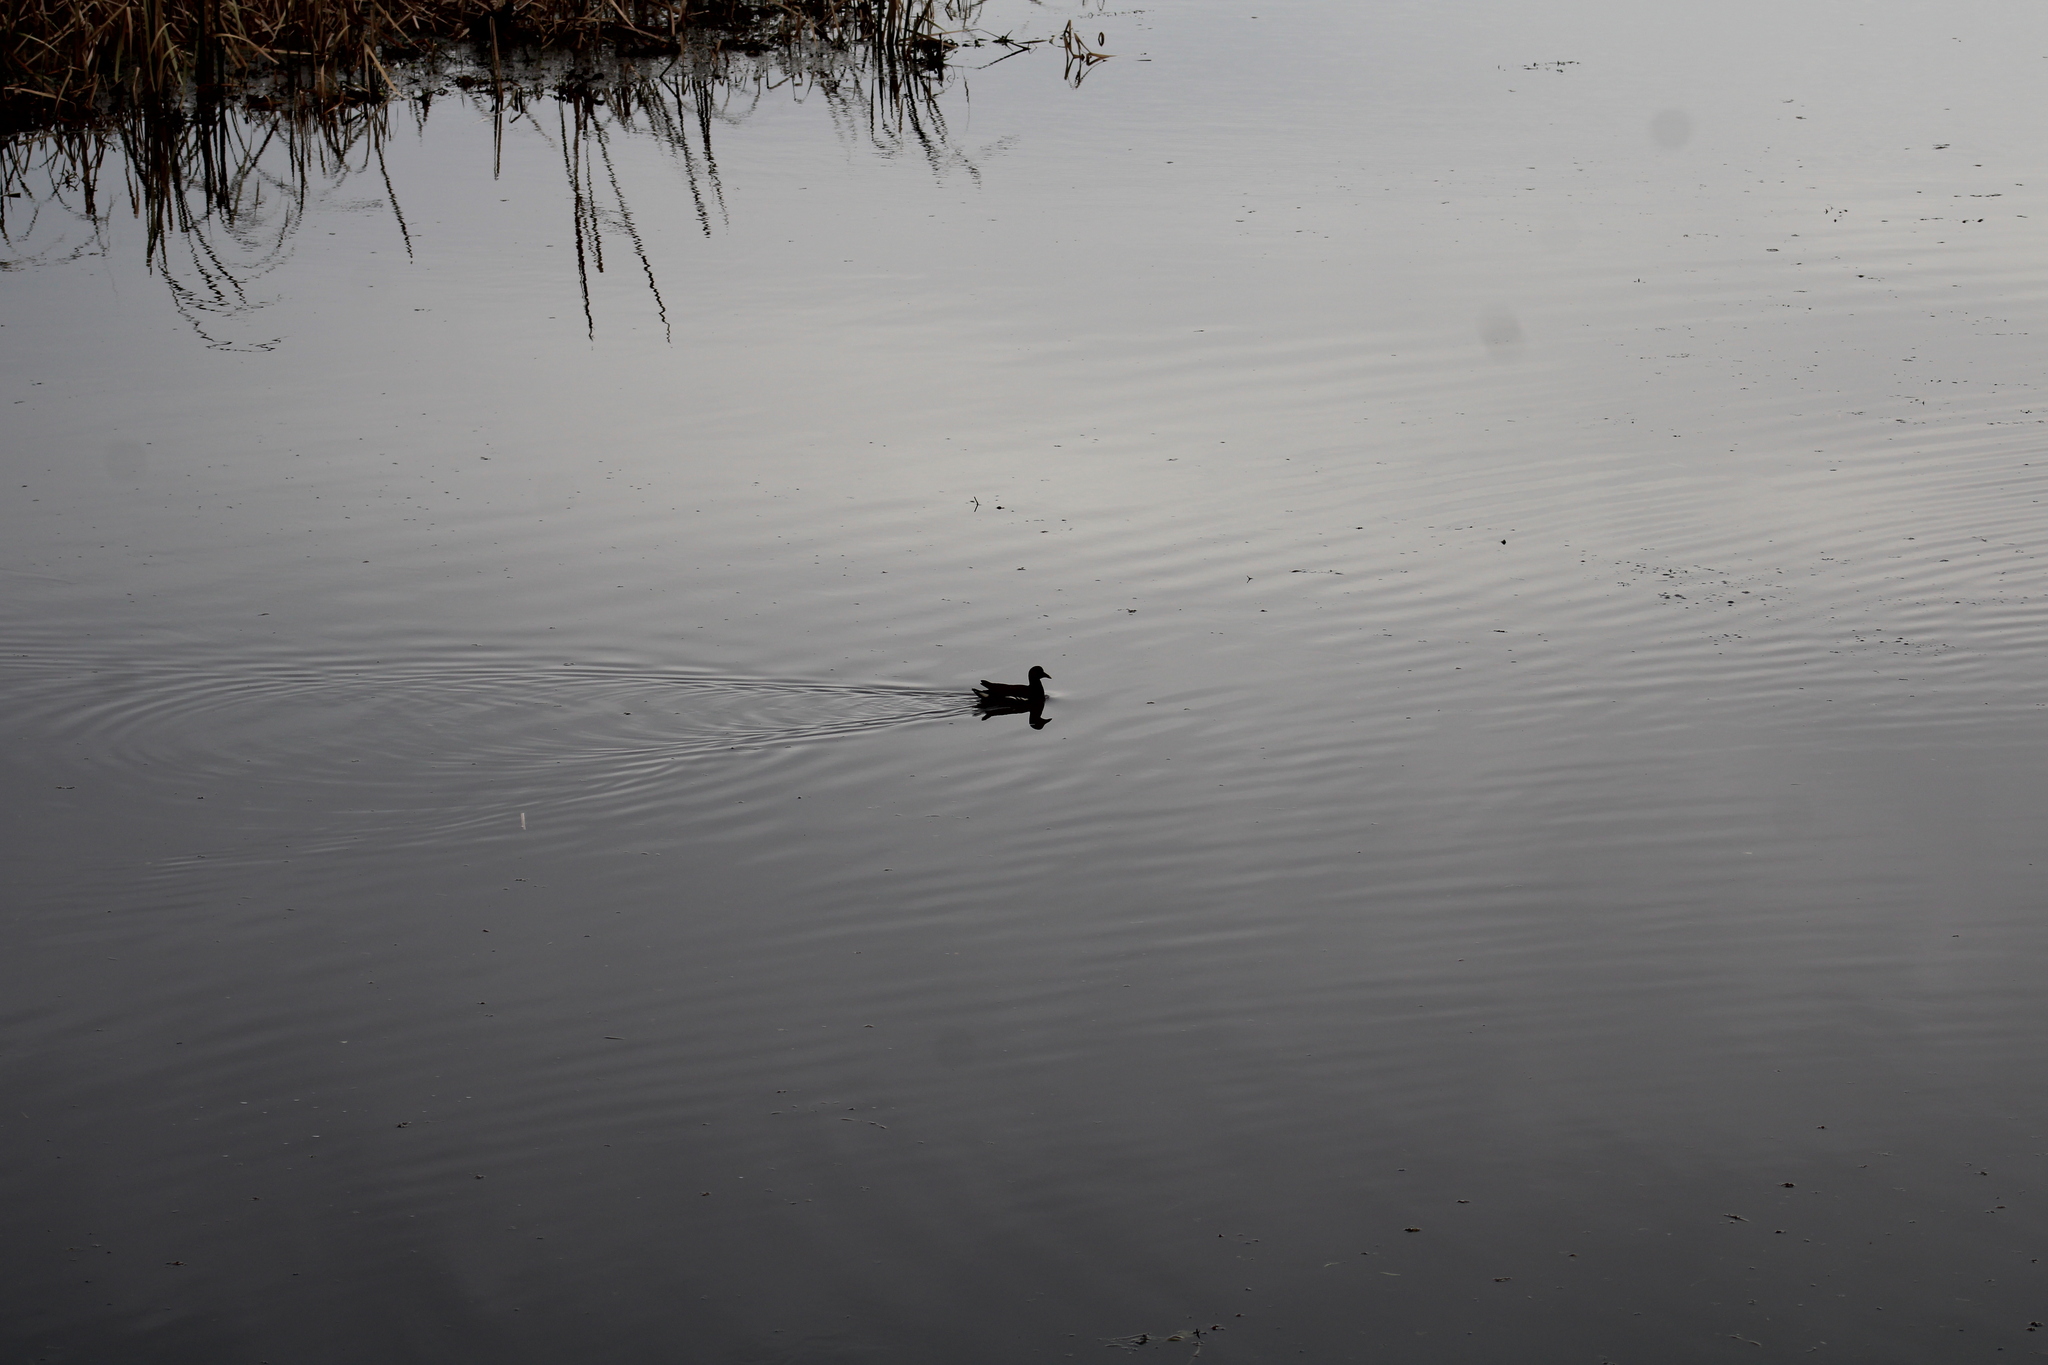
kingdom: Animalia
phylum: Chordata
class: Aves
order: Gruiformes
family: Rallidae
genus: Gallinula
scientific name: Gallinula chloropus
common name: Common moorhen
